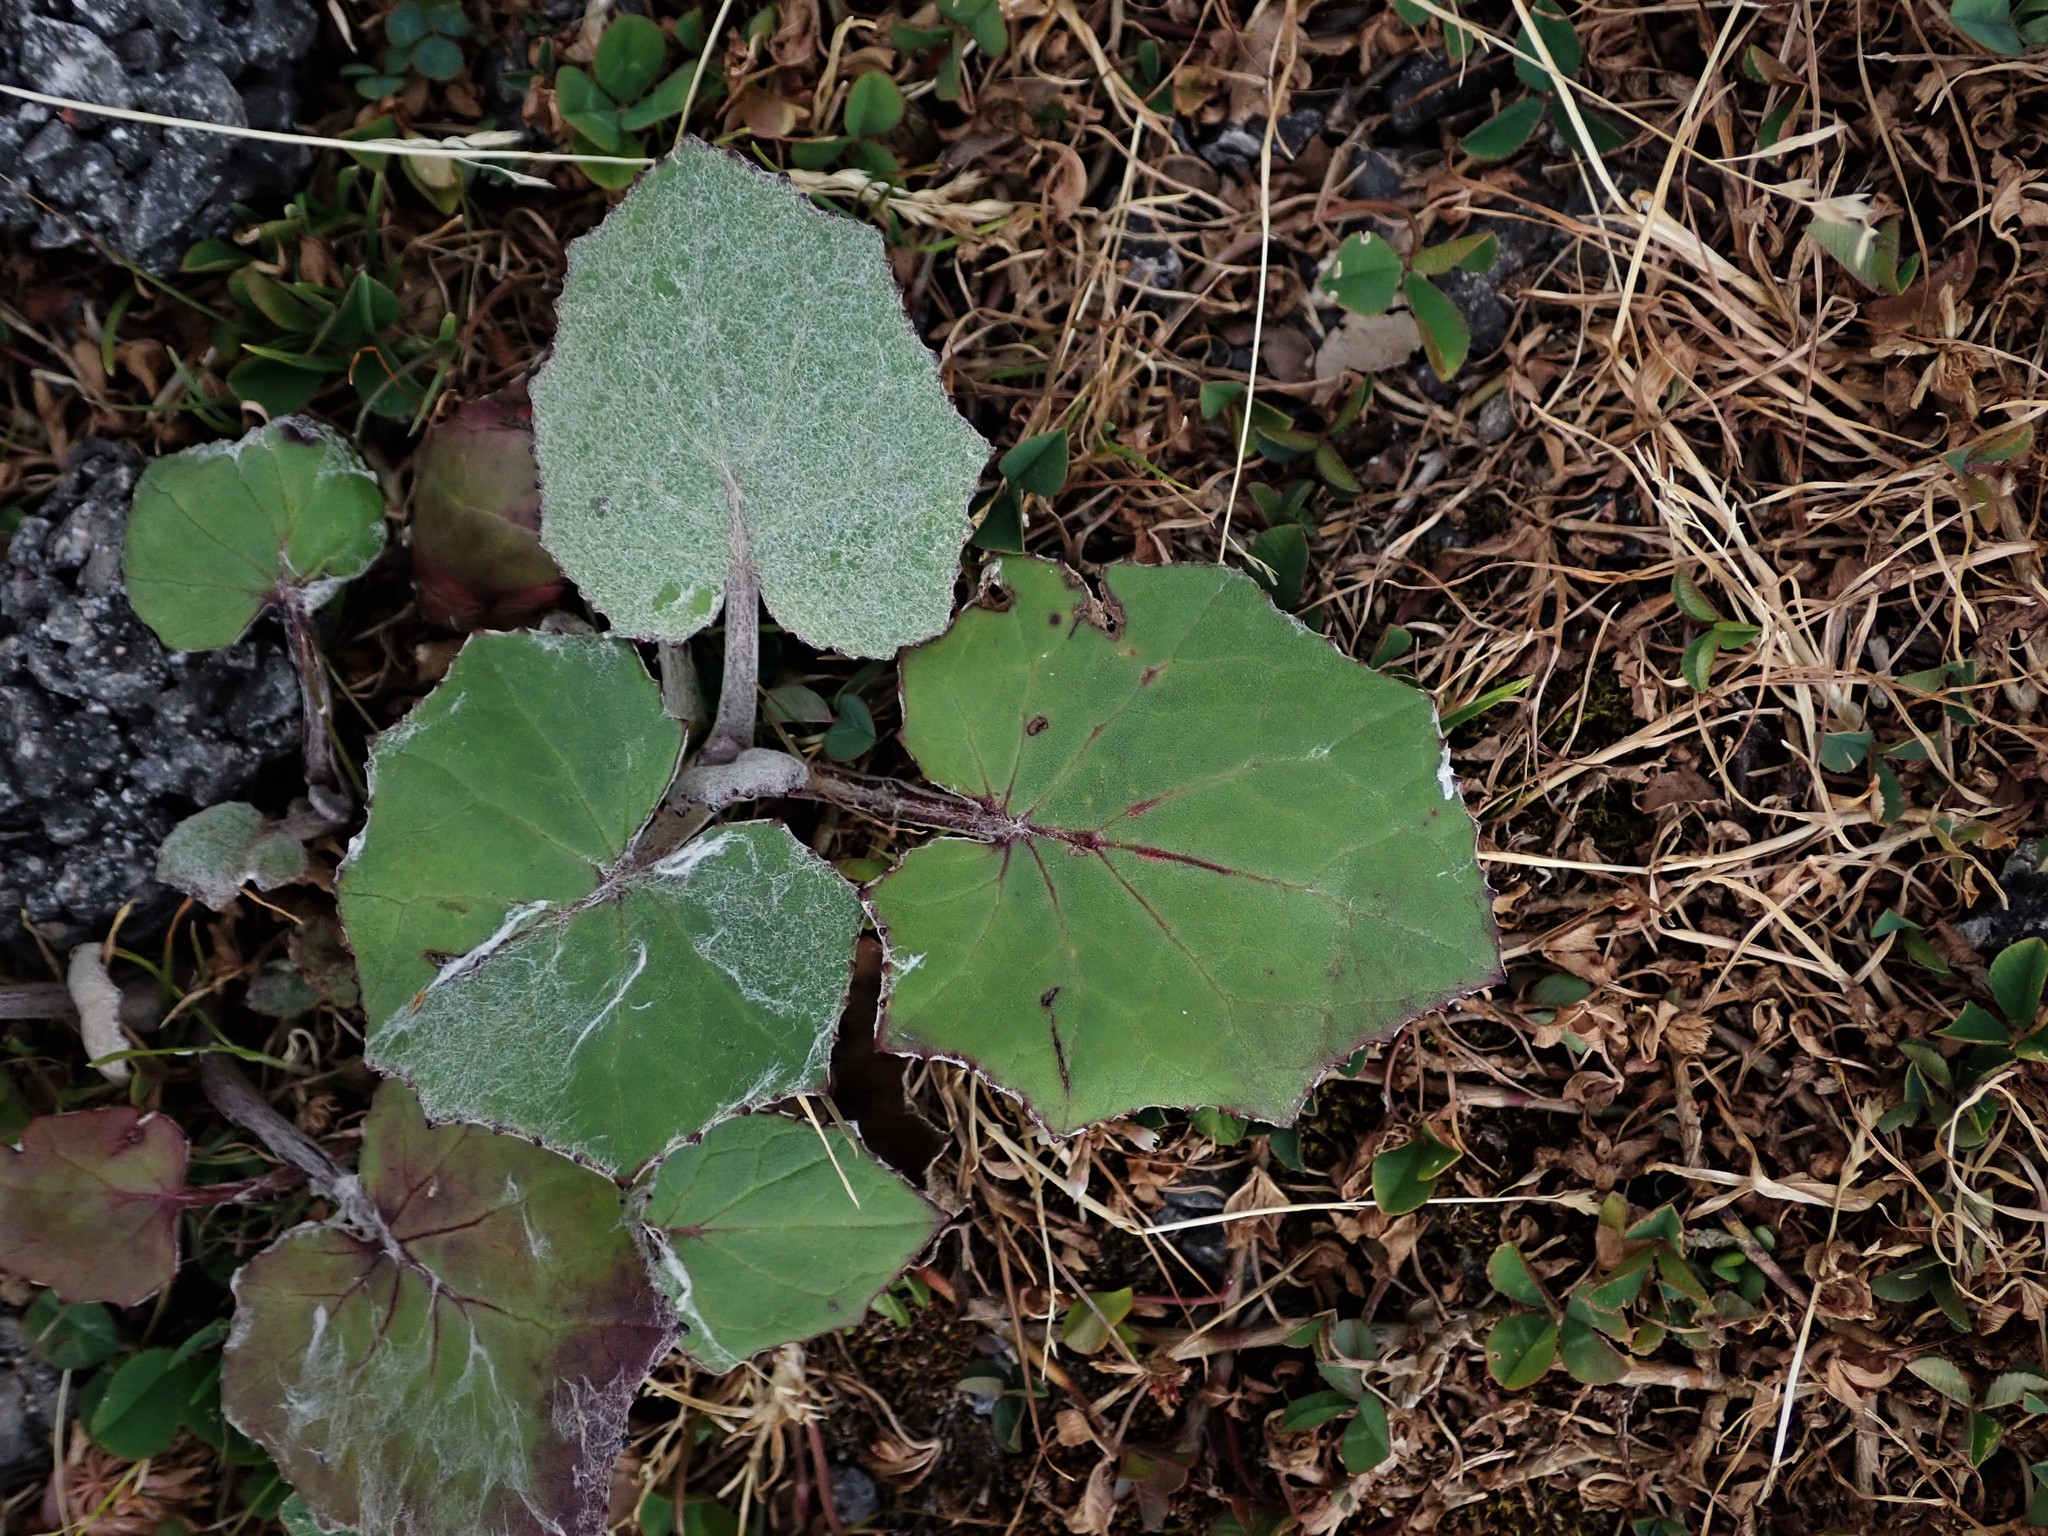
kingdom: Plantae
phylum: Tracheophyta
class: Magnoliopsida
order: Asterales
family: Asteraceae
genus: Tussilago
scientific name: Tussilago farfara
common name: Coltsfoot
